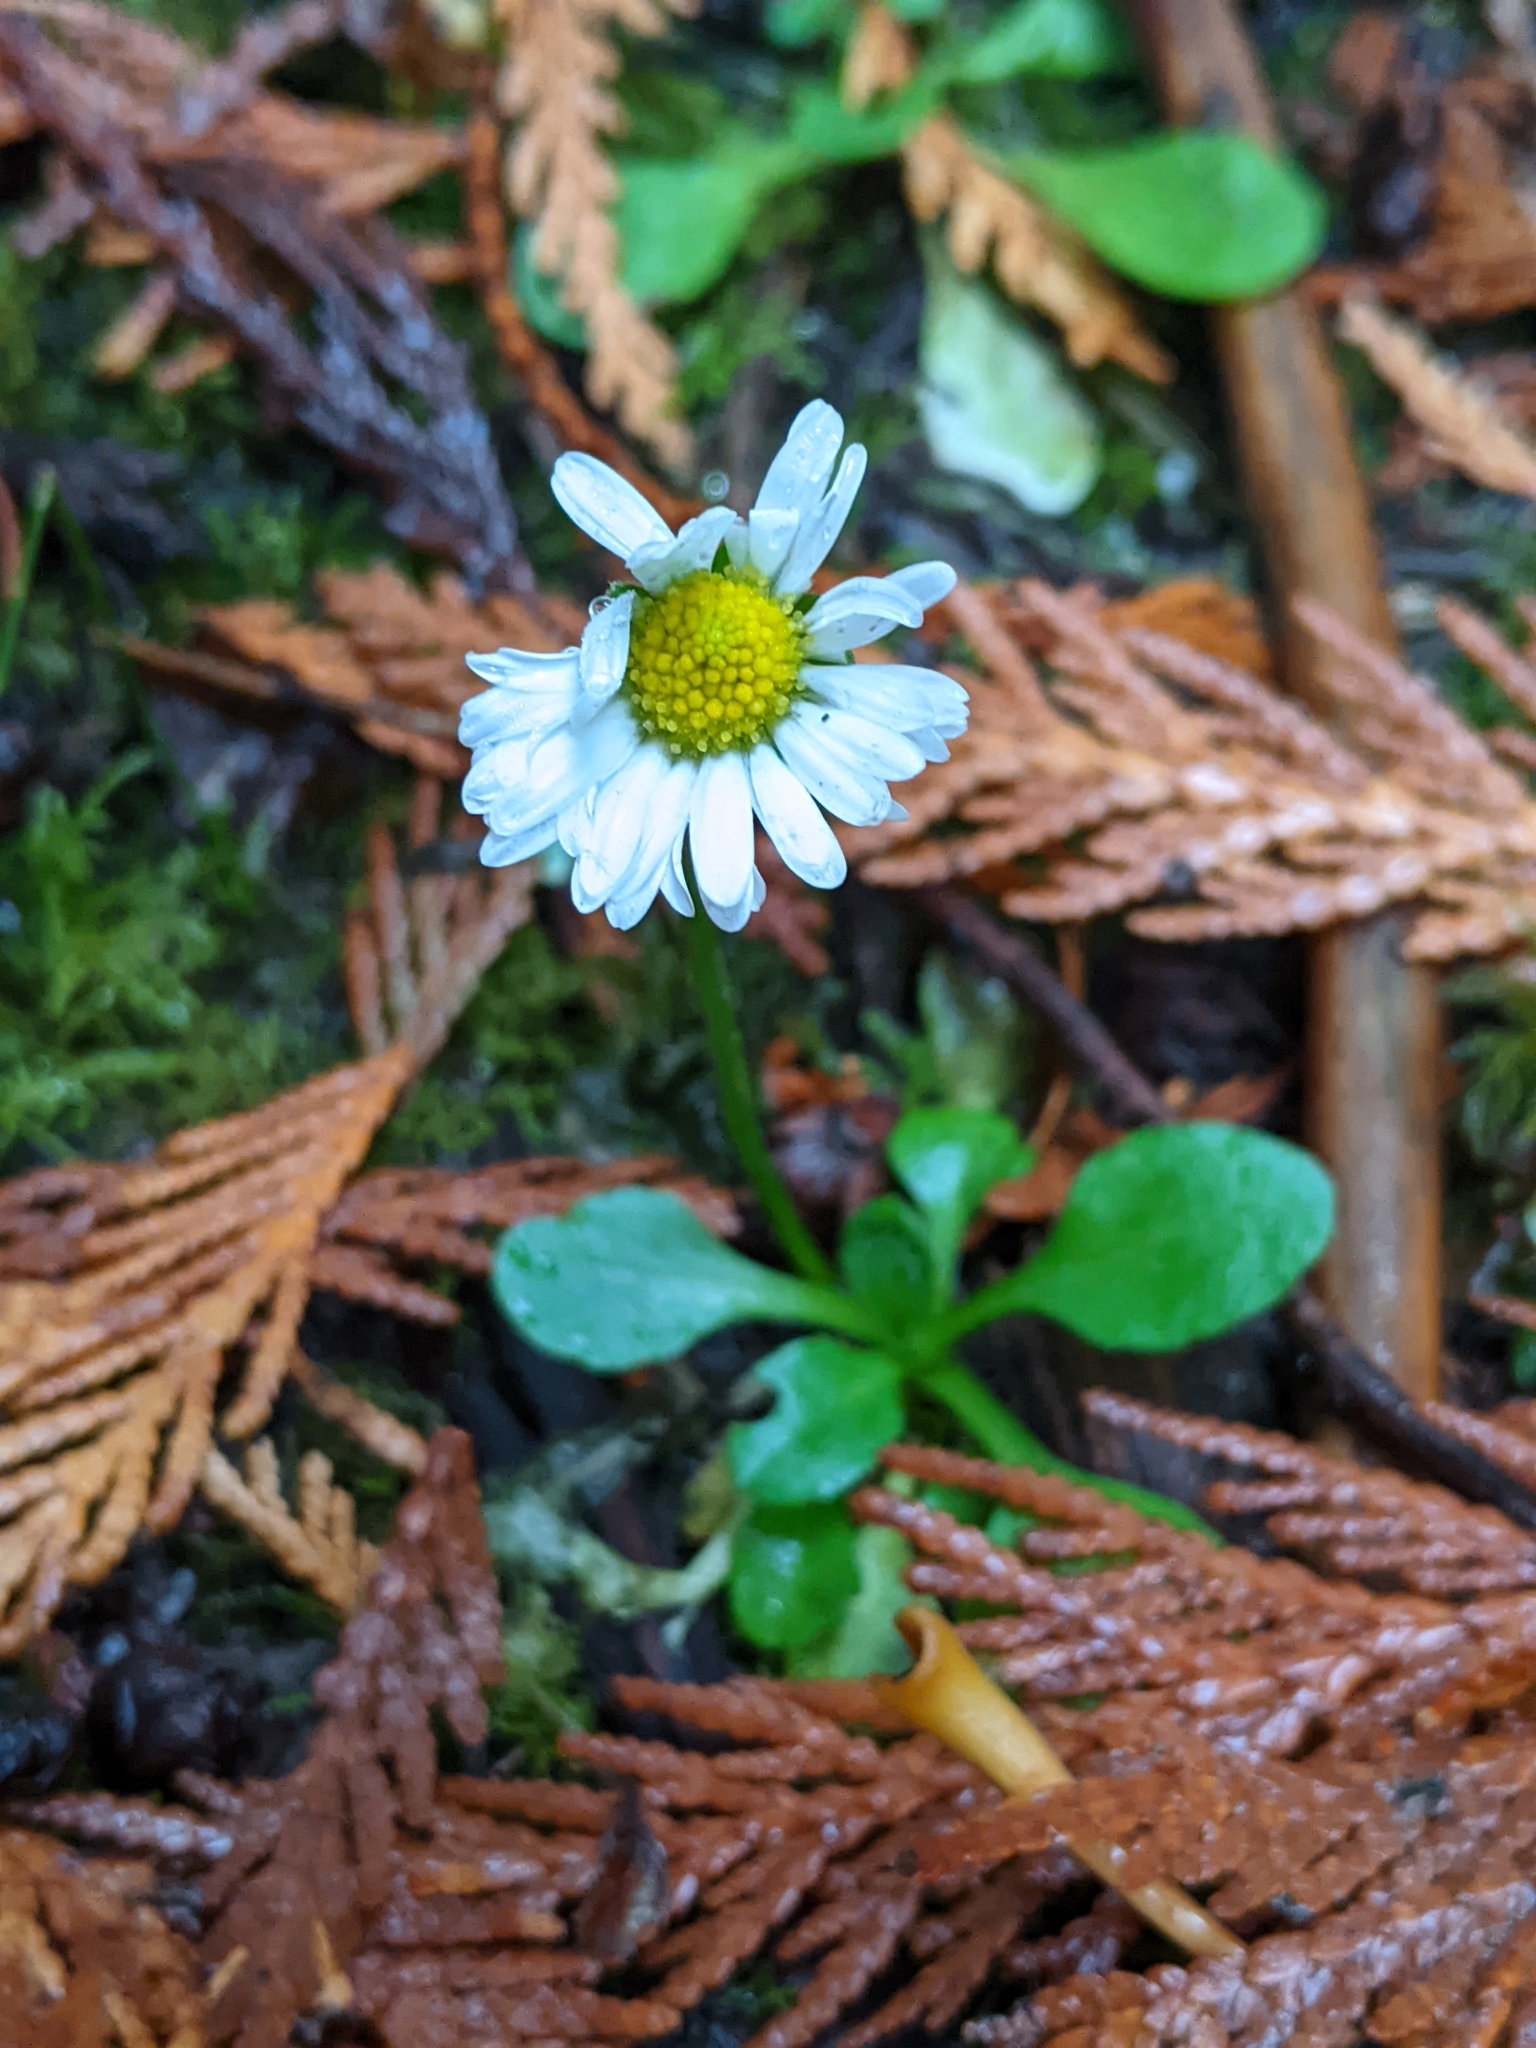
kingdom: Plantae
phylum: Tracheophyta
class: Magnoliopsida
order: Asterales
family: Asteraceae
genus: Bellis
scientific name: Bellis perennis
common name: Lawndaisy
